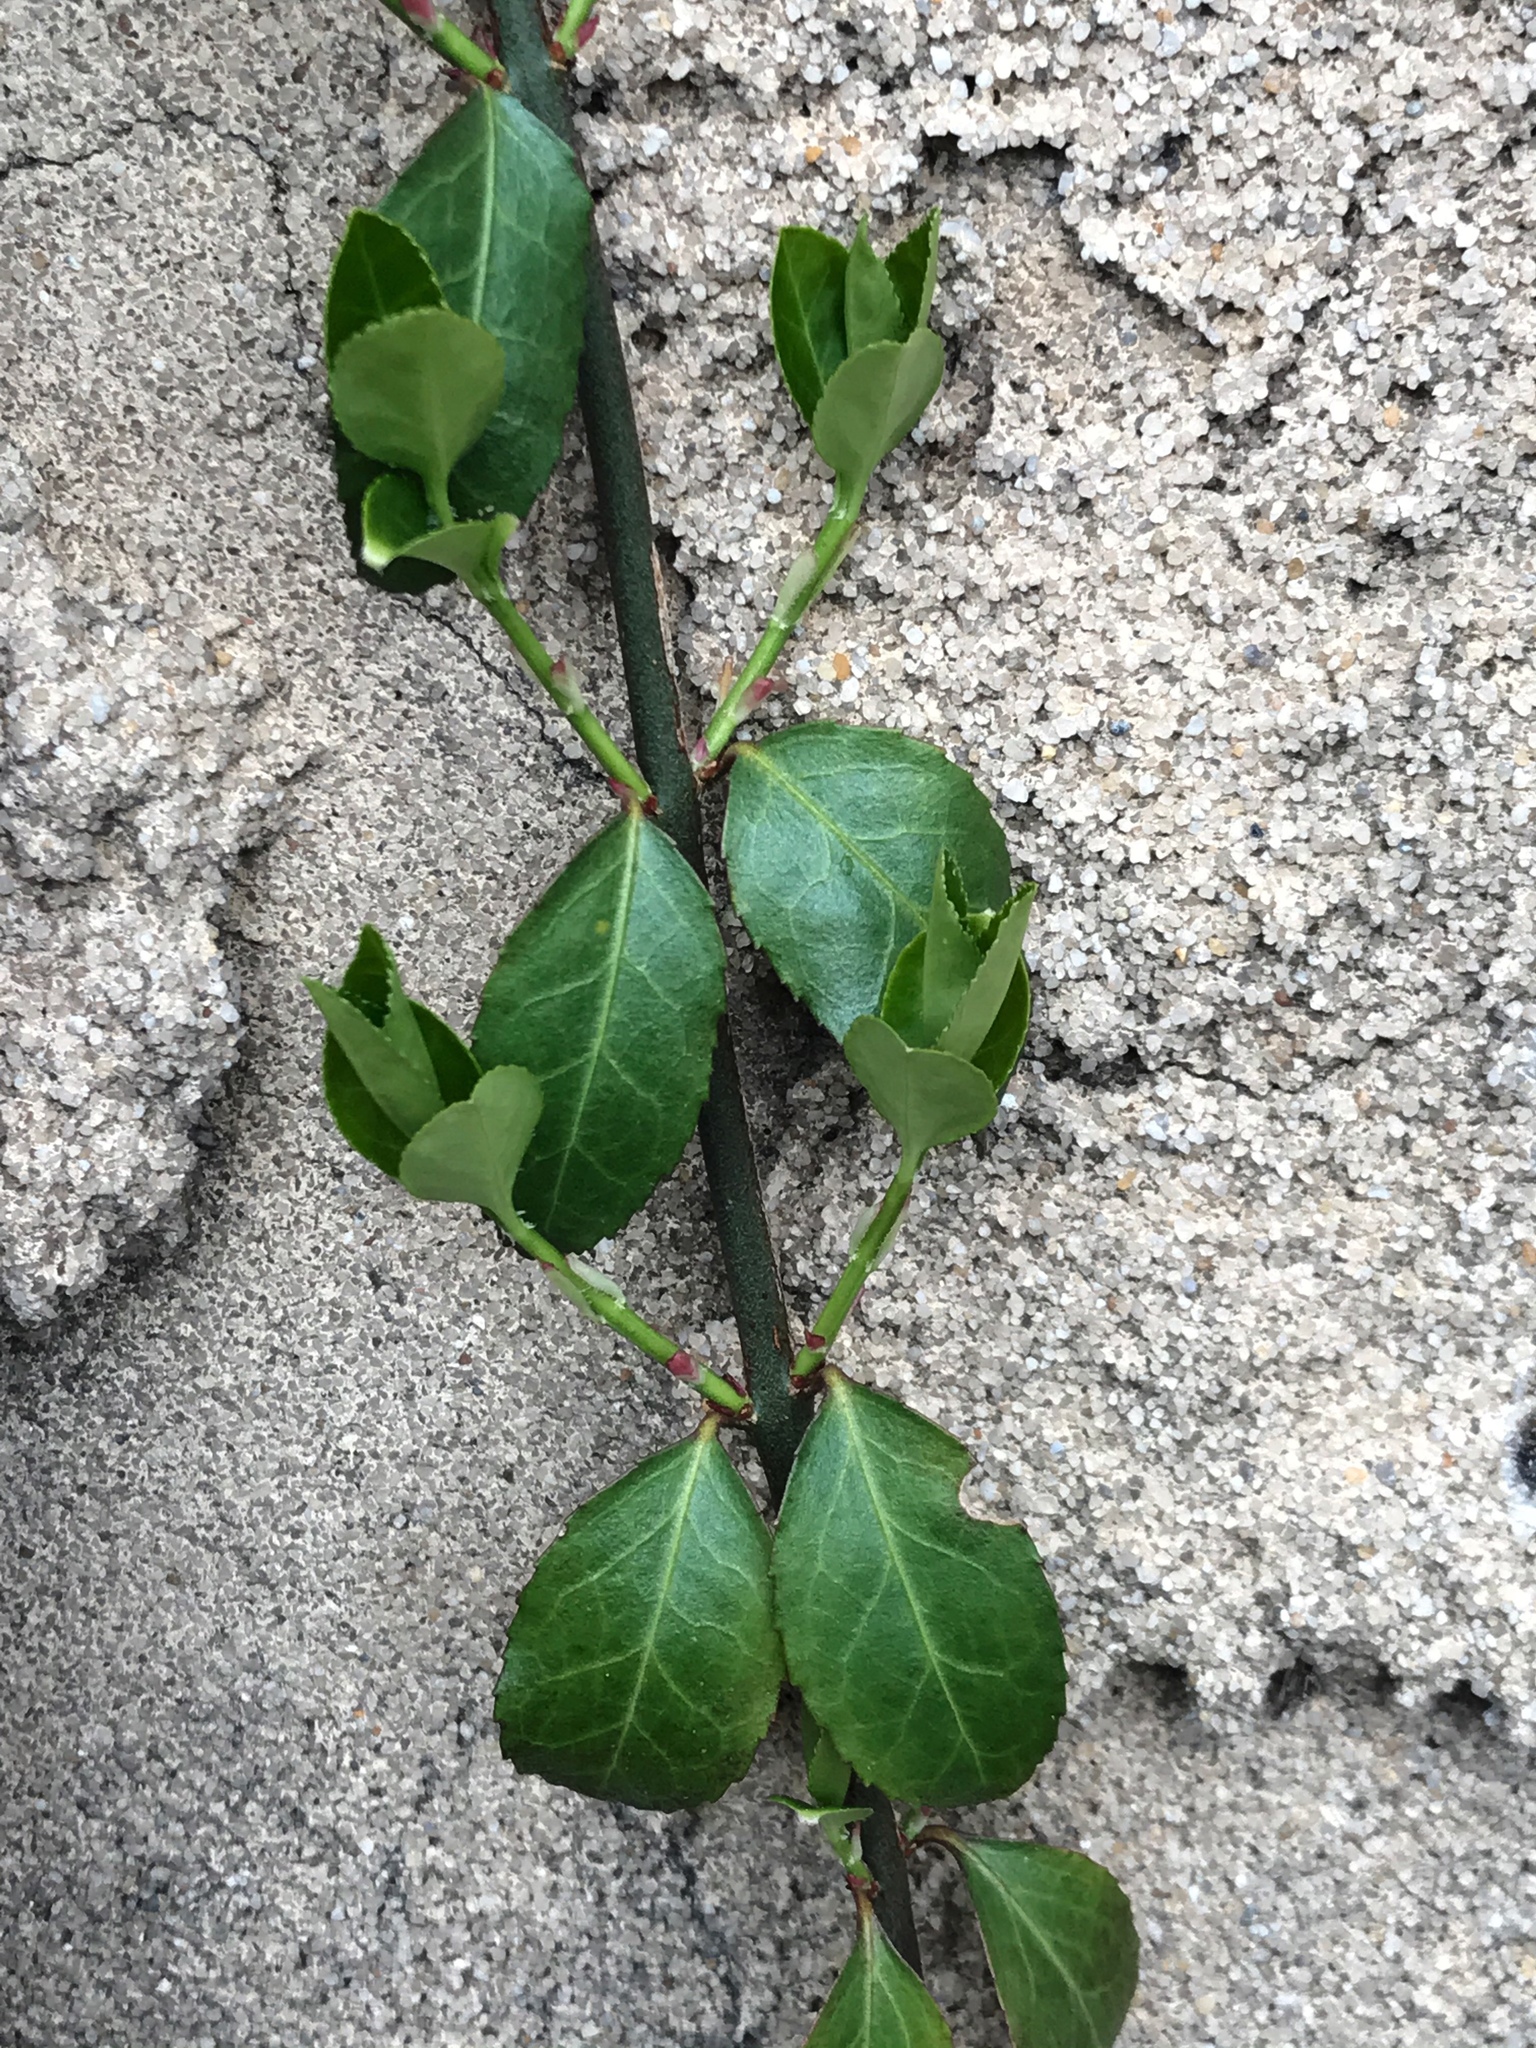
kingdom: Plantae
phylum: Tracheophyta
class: Magnoliopsida
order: Celastrales
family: Celastraceae
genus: Euonymus
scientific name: Euonymus fortunei
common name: Climbing euonymus
